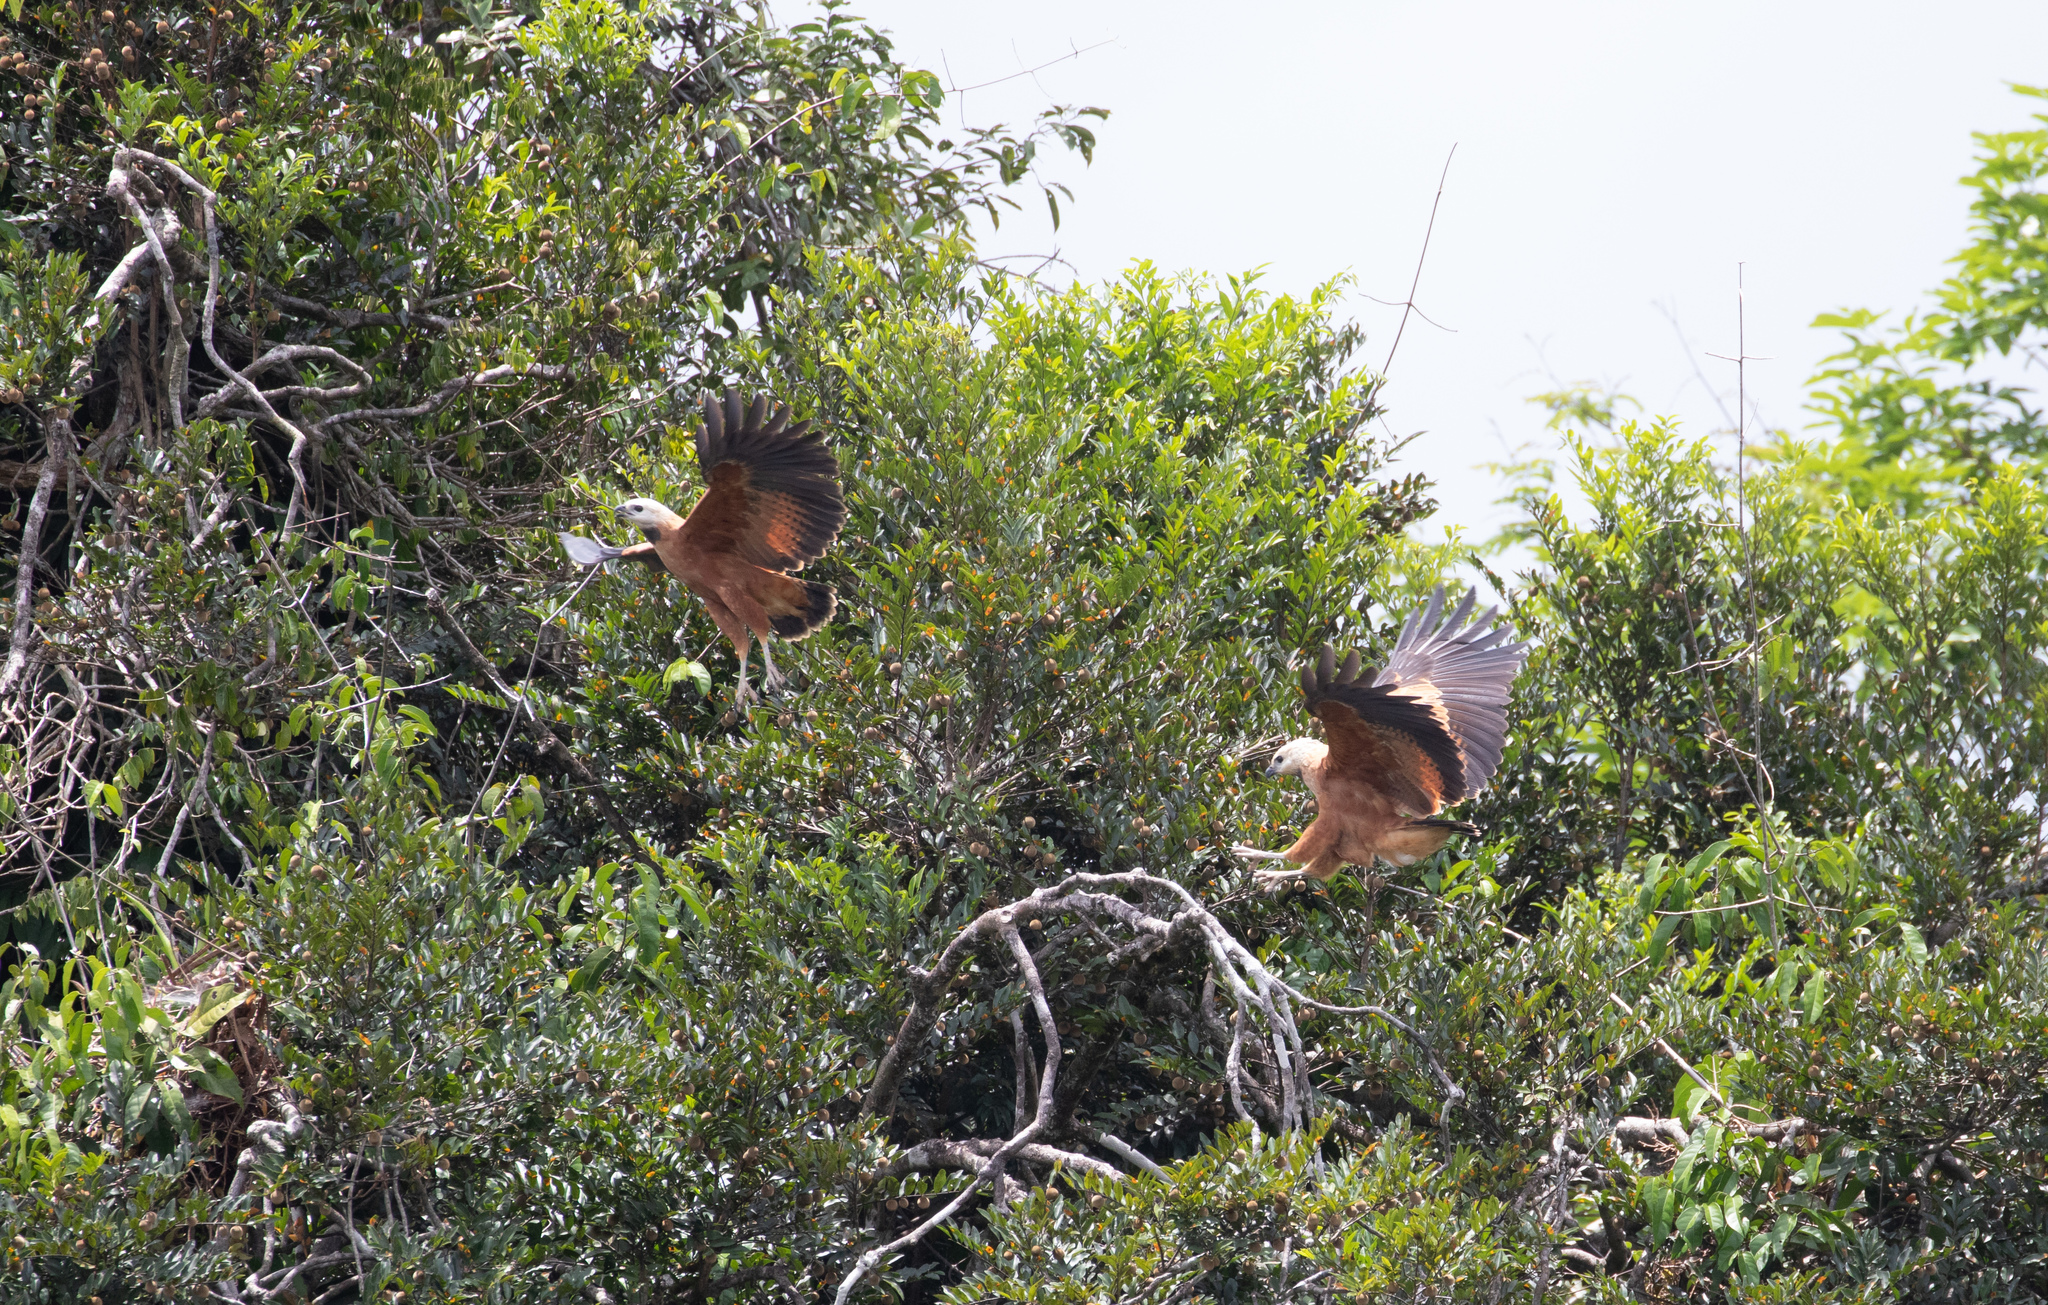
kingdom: Animalia
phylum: Chordata
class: Aves
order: Accipitriformes
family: Accipitridae
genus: Busarellus
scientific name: Busarellus nigricollis
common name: Black-collared hawk
